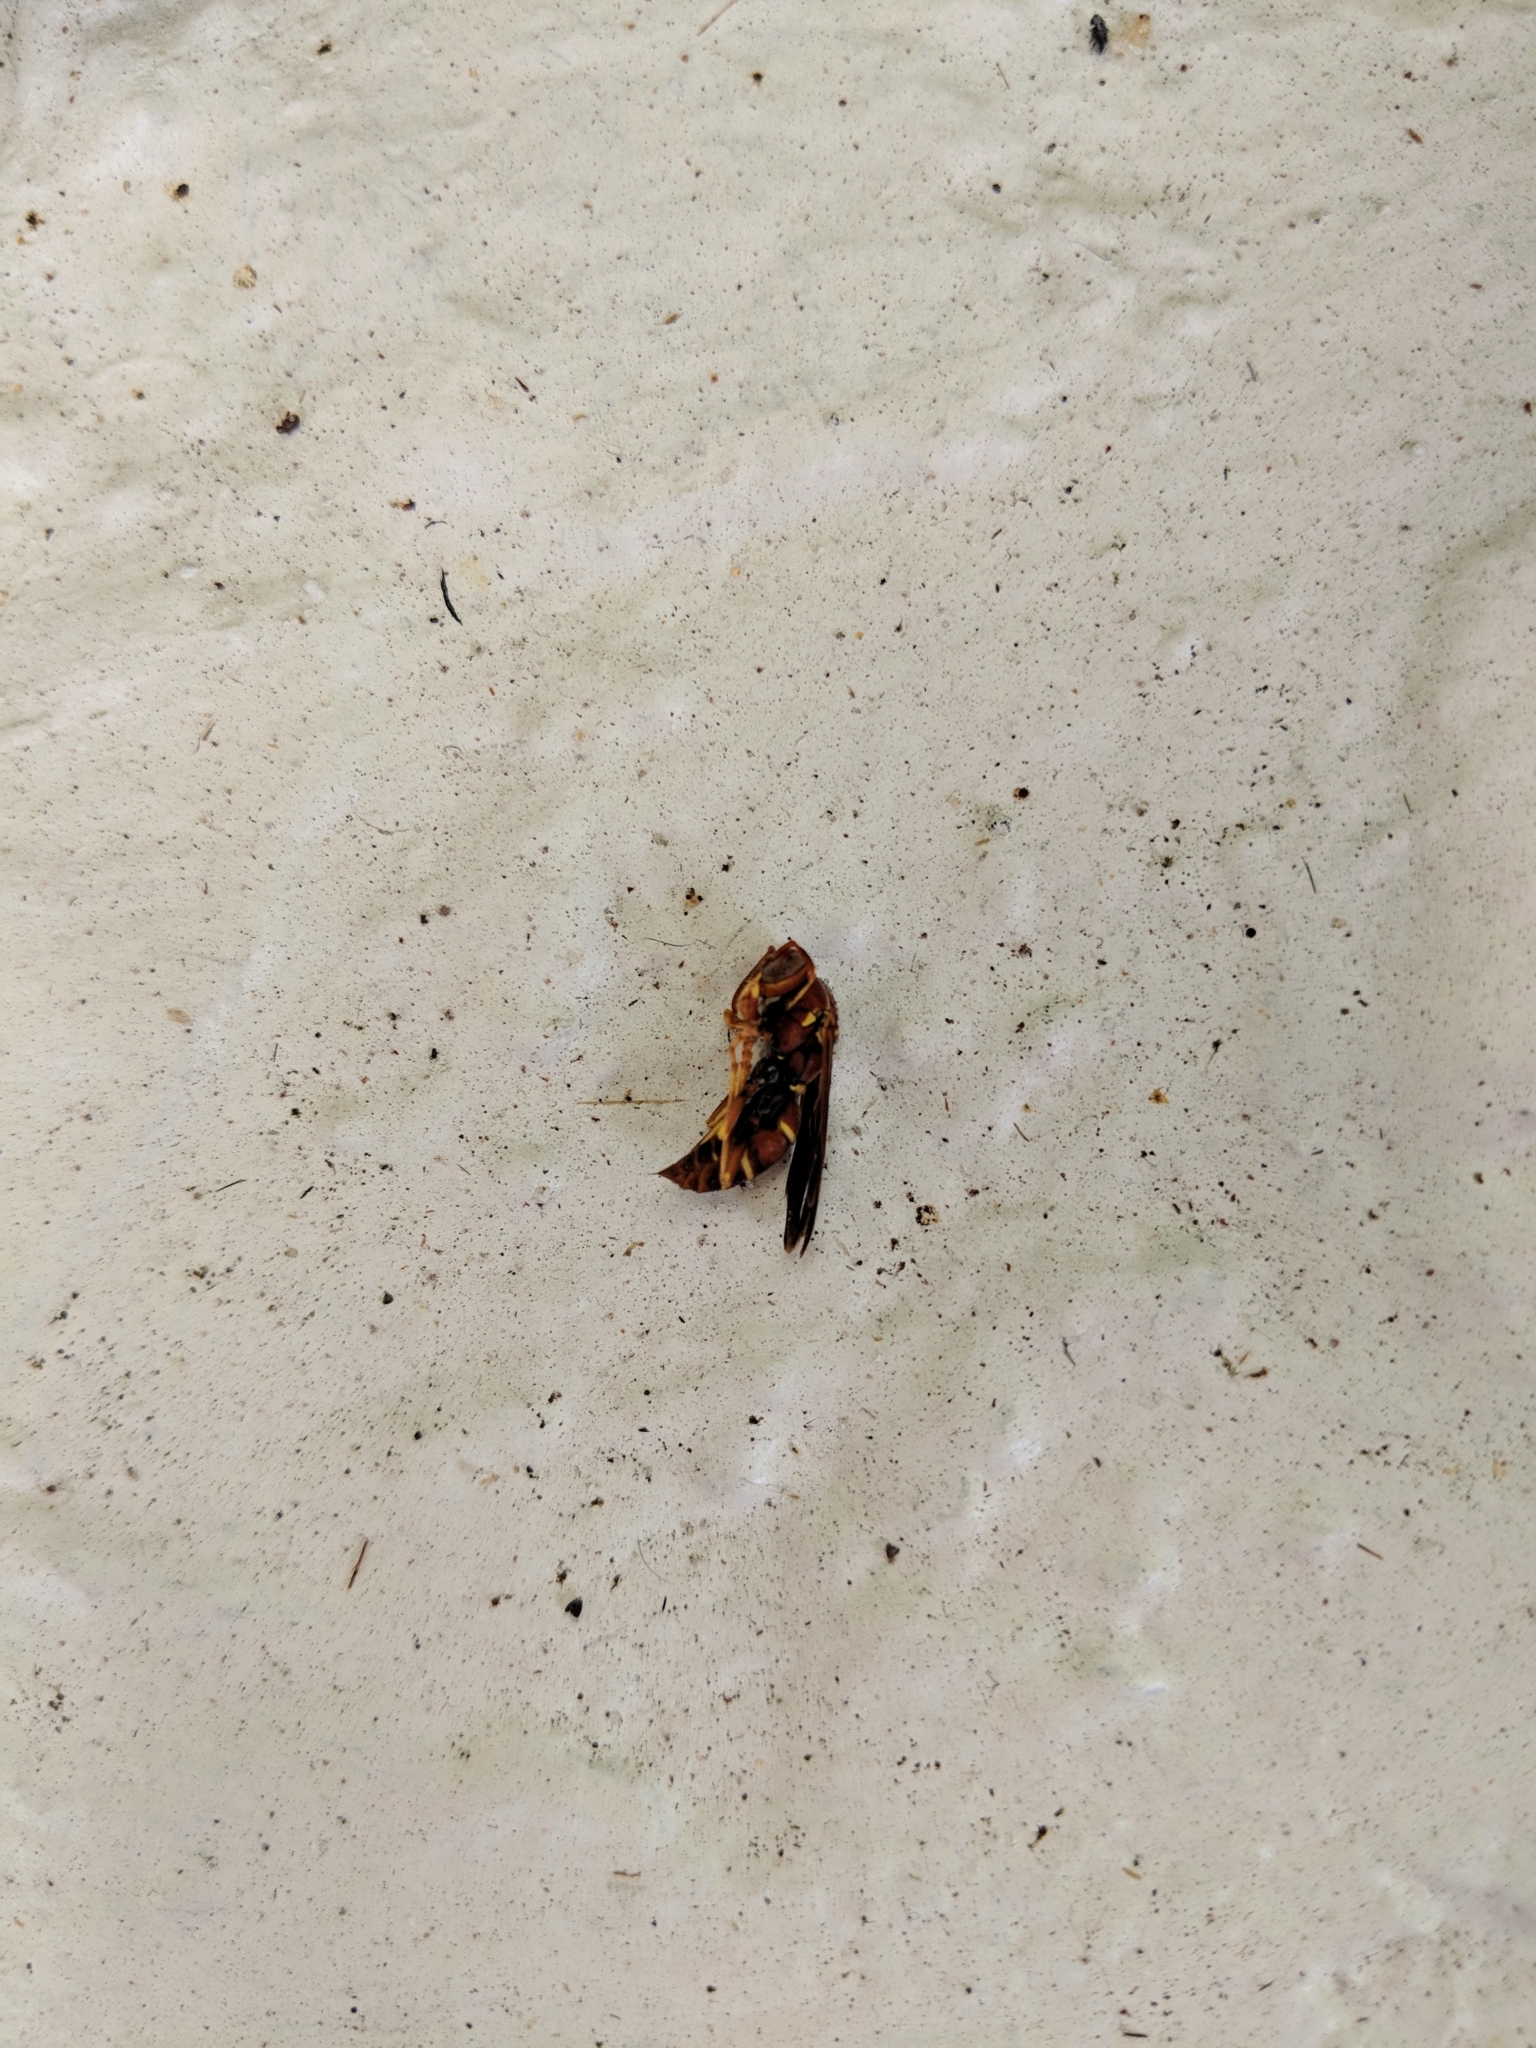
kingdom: Animalia
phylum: Arthropoda
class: Insecta
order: Hymenoptera
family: Eumenidae
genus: Polistes
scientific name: Polistes dorsalis
